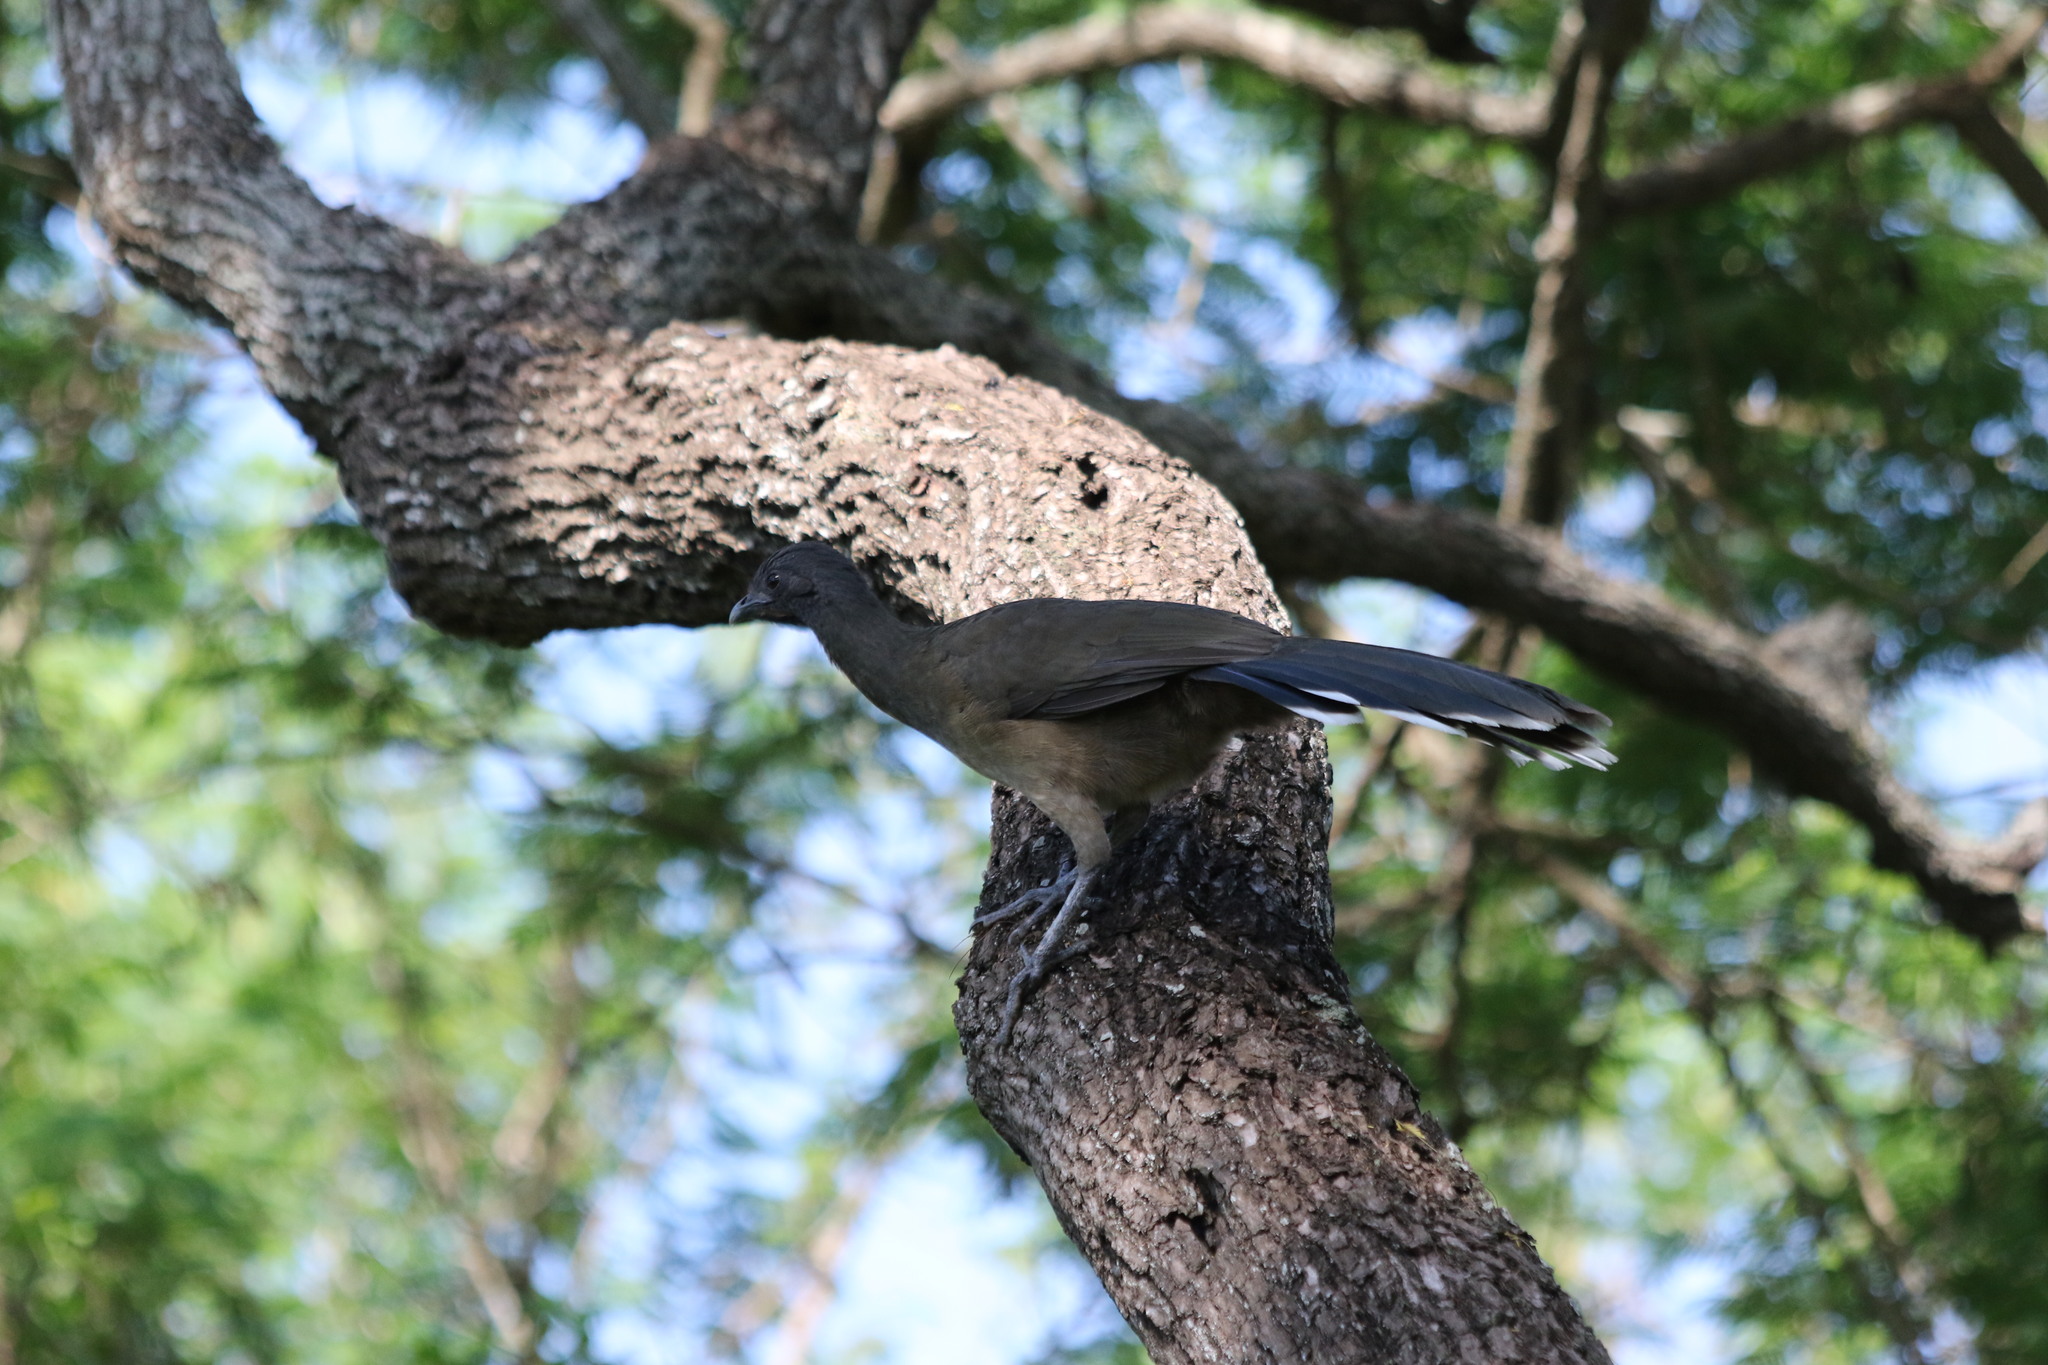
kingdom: Animalia
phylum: Chordata
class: Aves
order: Galliformes
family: Cracidae
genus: Ortalis
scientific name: Ortalis vetula
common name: Plain chachalaca
